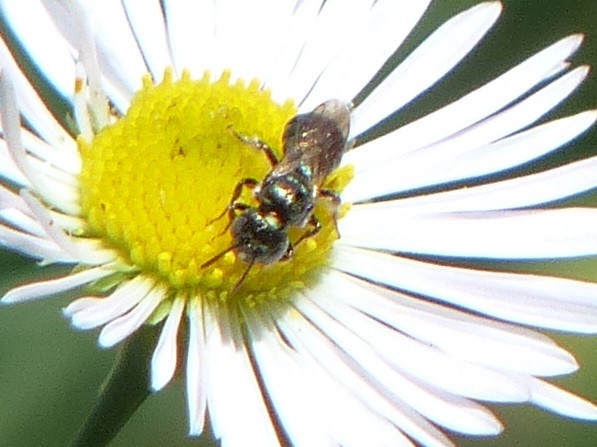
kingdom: Animalia
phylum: Arthropoda
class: Insecta
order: Hymenoptera
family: Apidae
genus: Zadontomerus
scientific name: Zadontomerus
